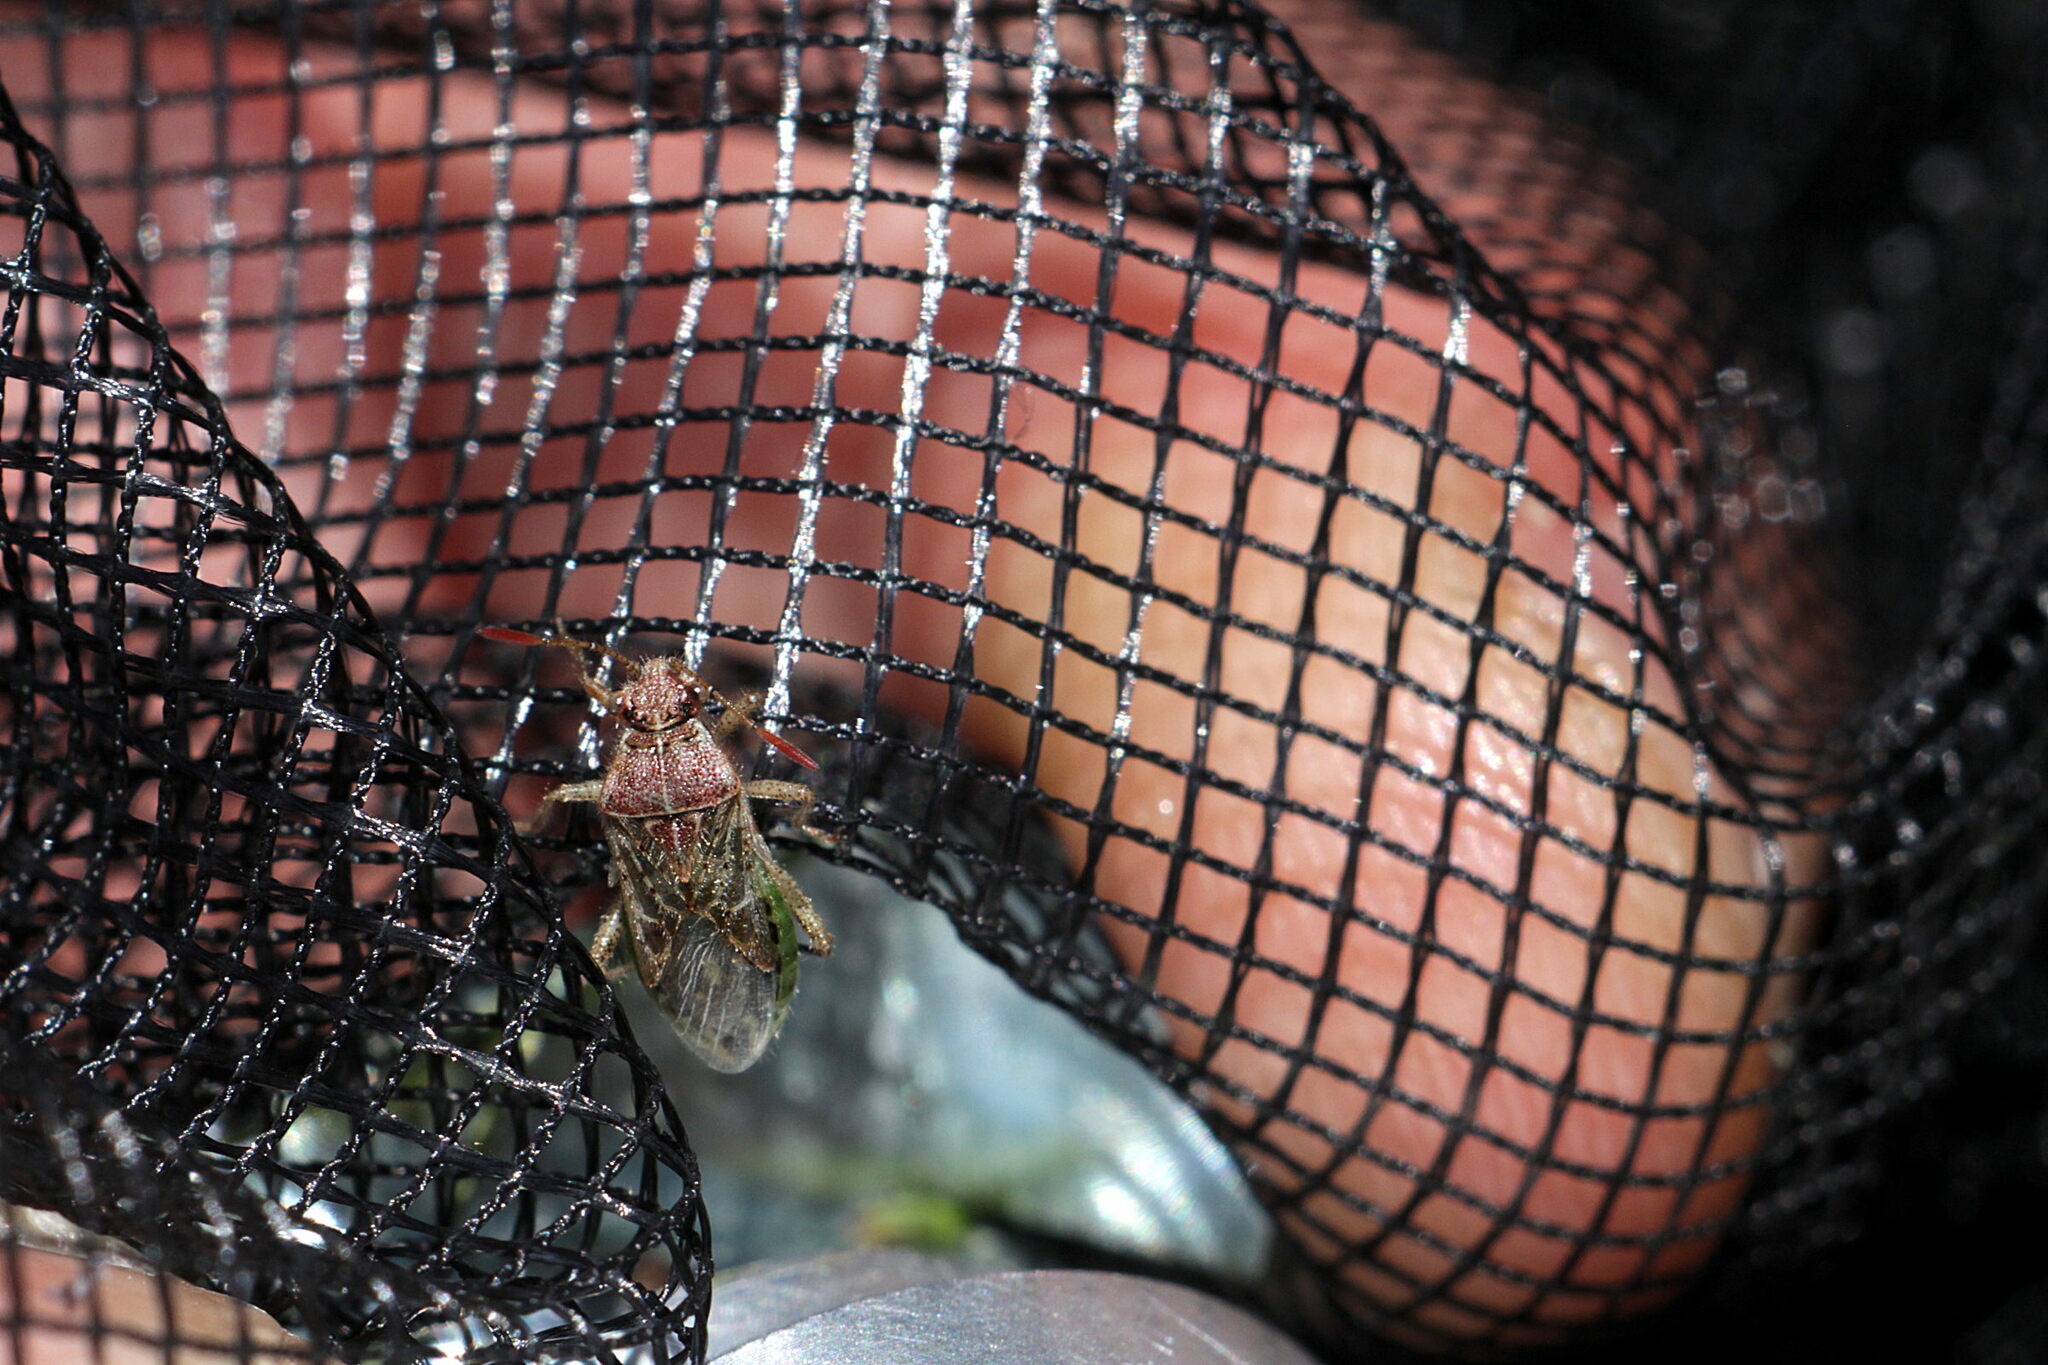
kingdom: Animalia
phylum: Arthropoda
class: Insecta
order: Hemiptera
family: Rhopalidae
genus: Rhopalus
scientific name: Rhopalus parumpunctatus
